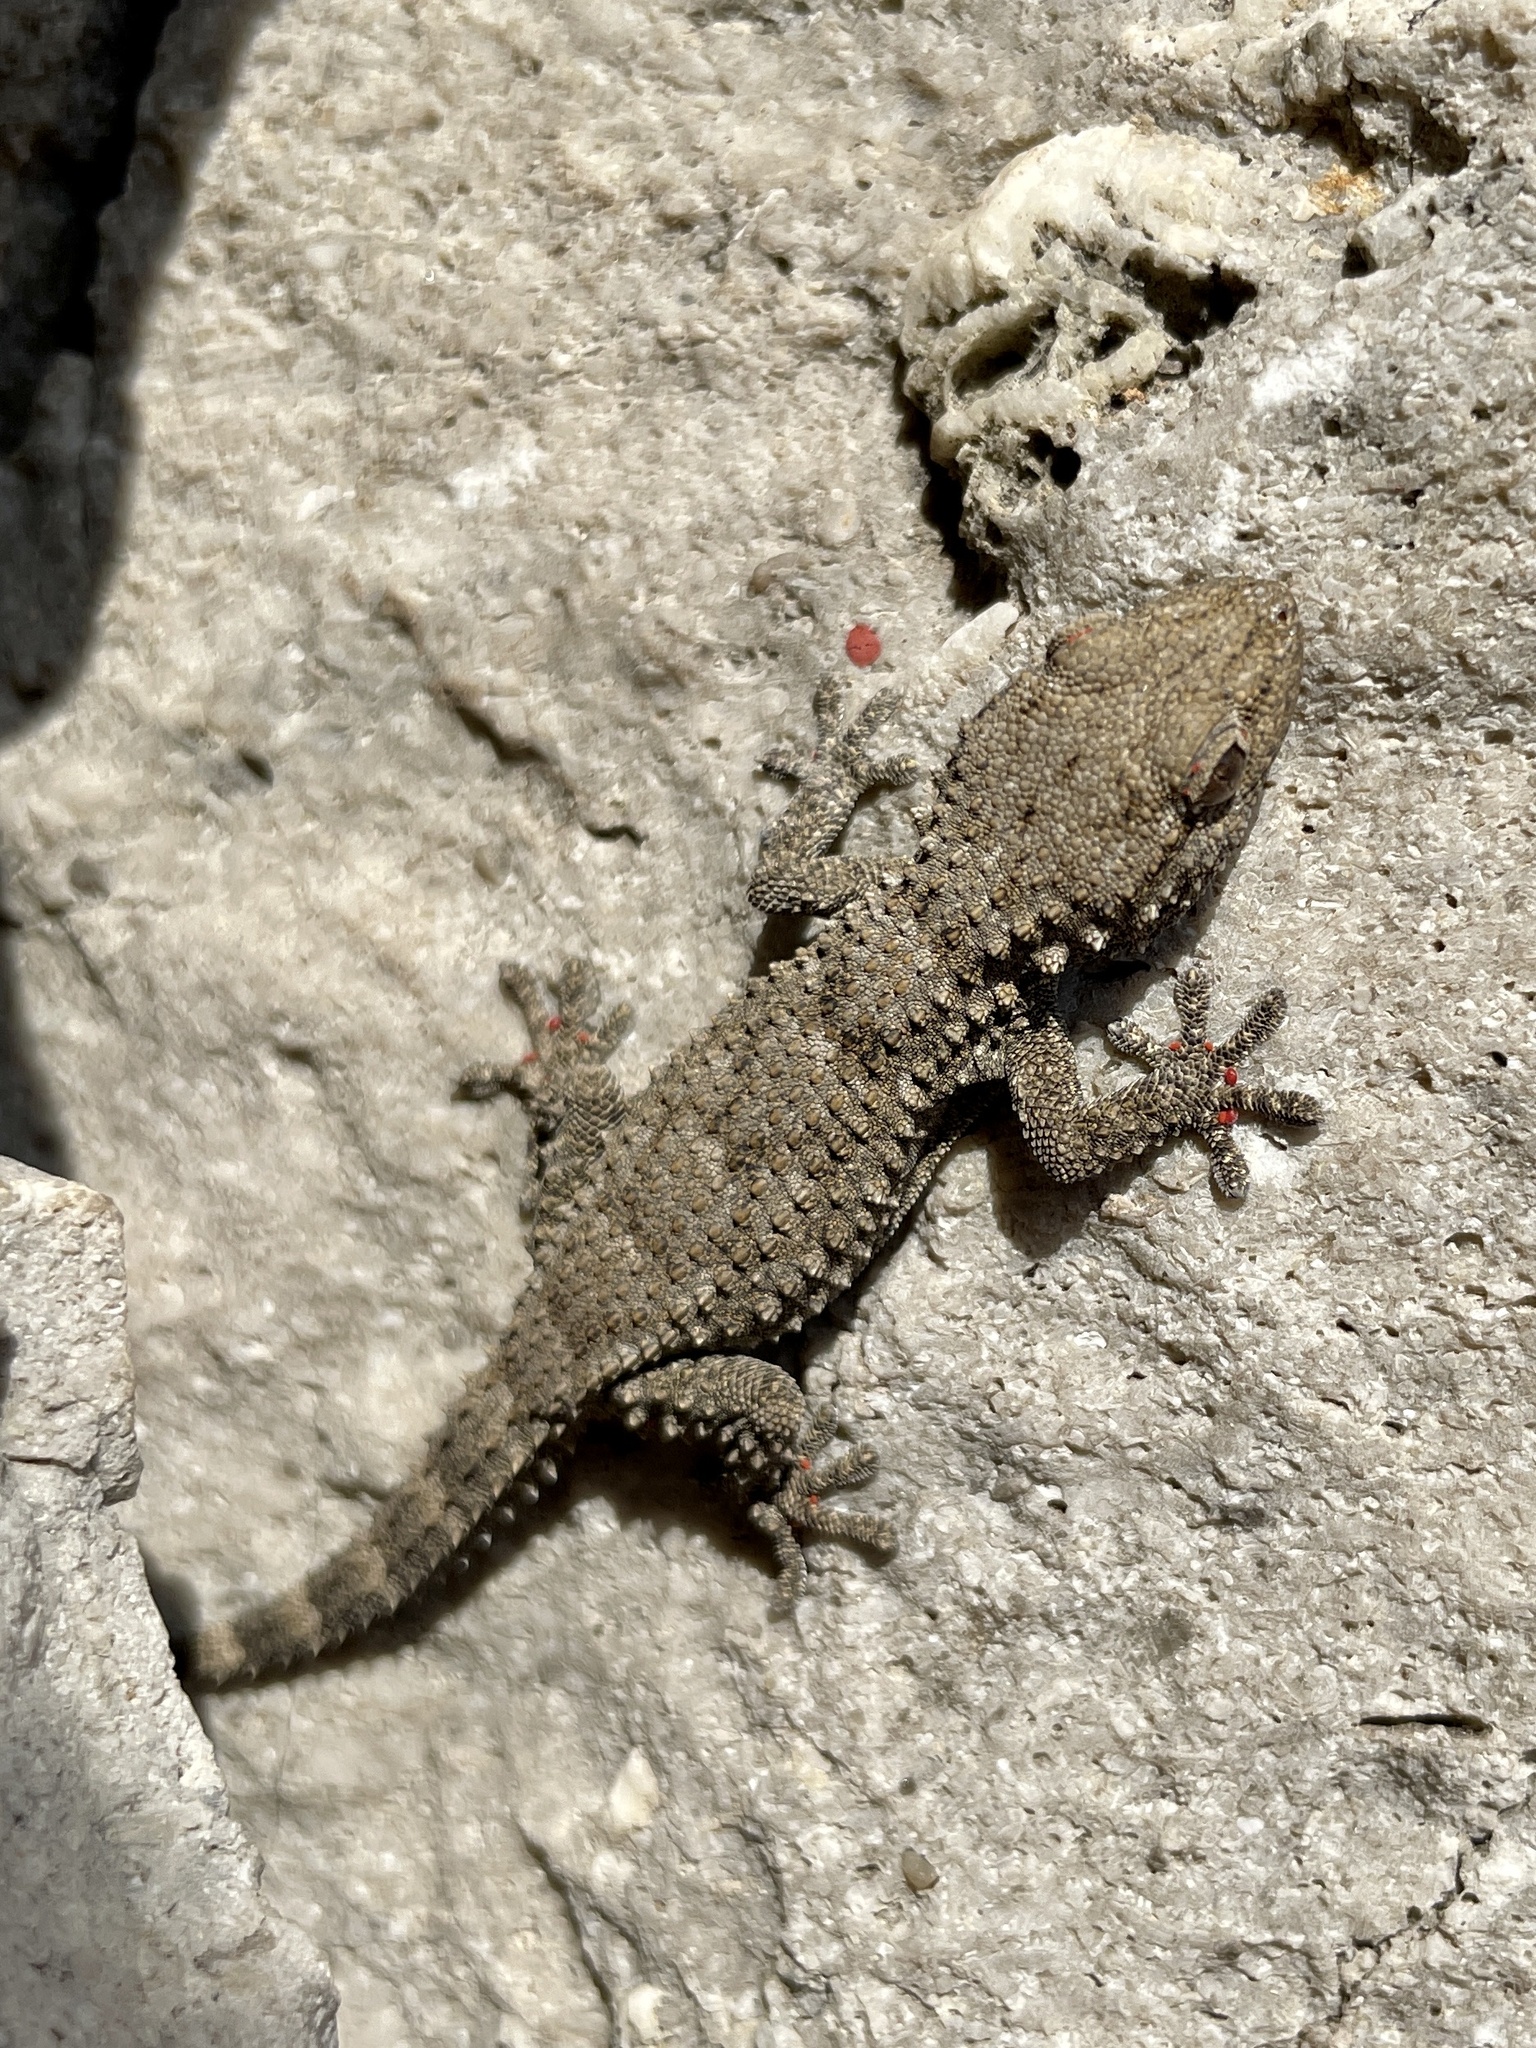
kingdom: Animalia
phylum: Chordata
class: Squamata
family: Phyllodactylidae
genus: Tarentola
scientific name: Tarentola mauritanica
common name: Moorish gecko
